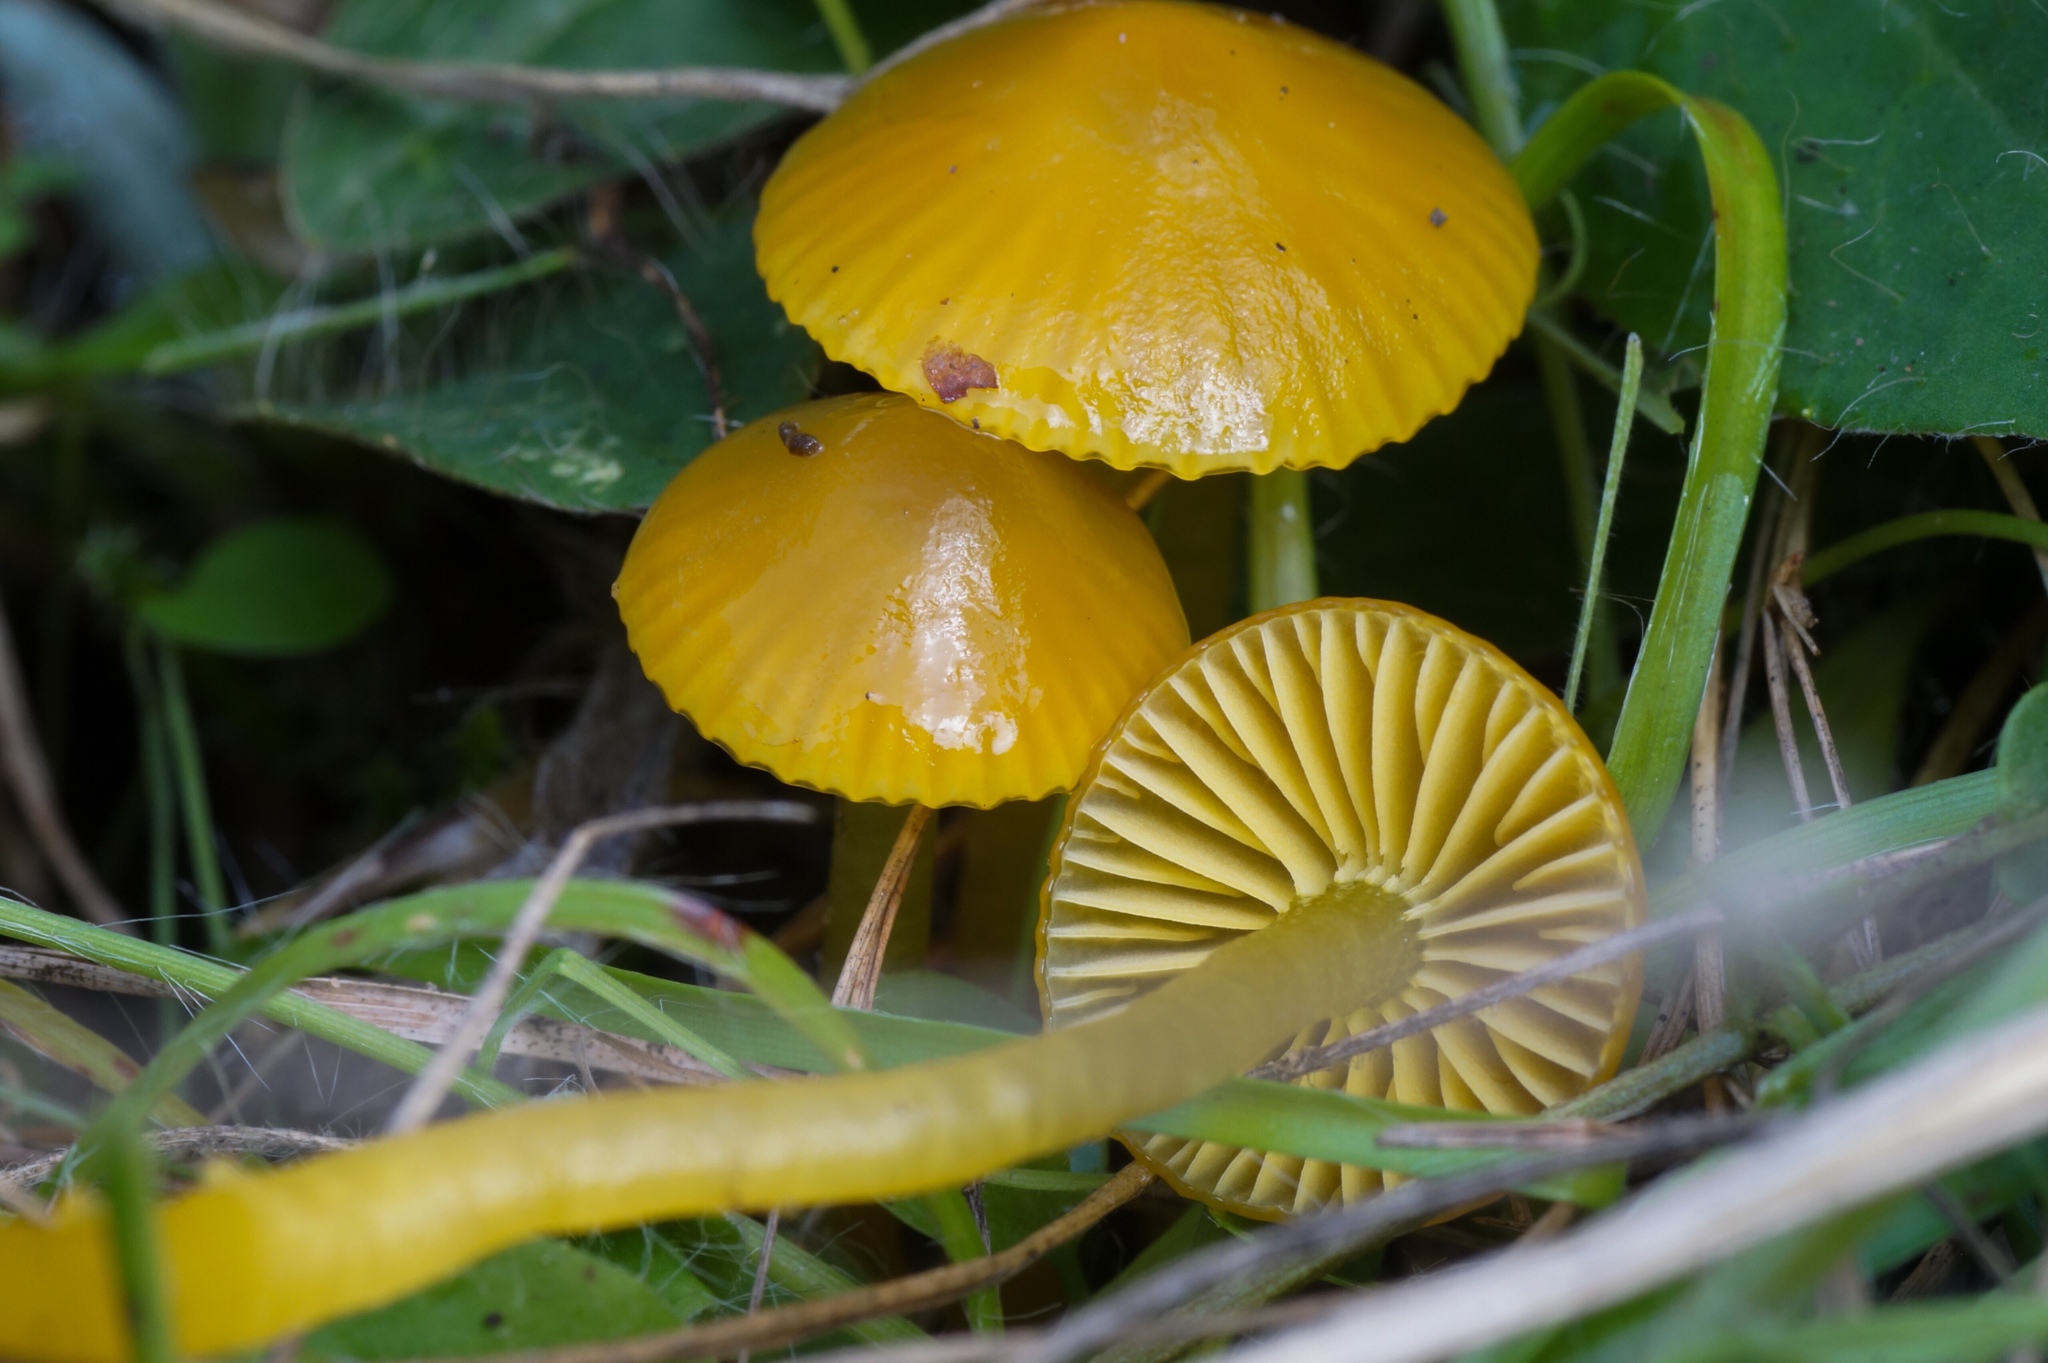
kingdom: Fungi
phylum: Basidiomycota
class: Agaricomycetes
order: Agaricales
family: Hygrophoraceae
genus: Gliophorus
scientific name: Gliophorus psittacinus
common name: Parrot wax-cap
